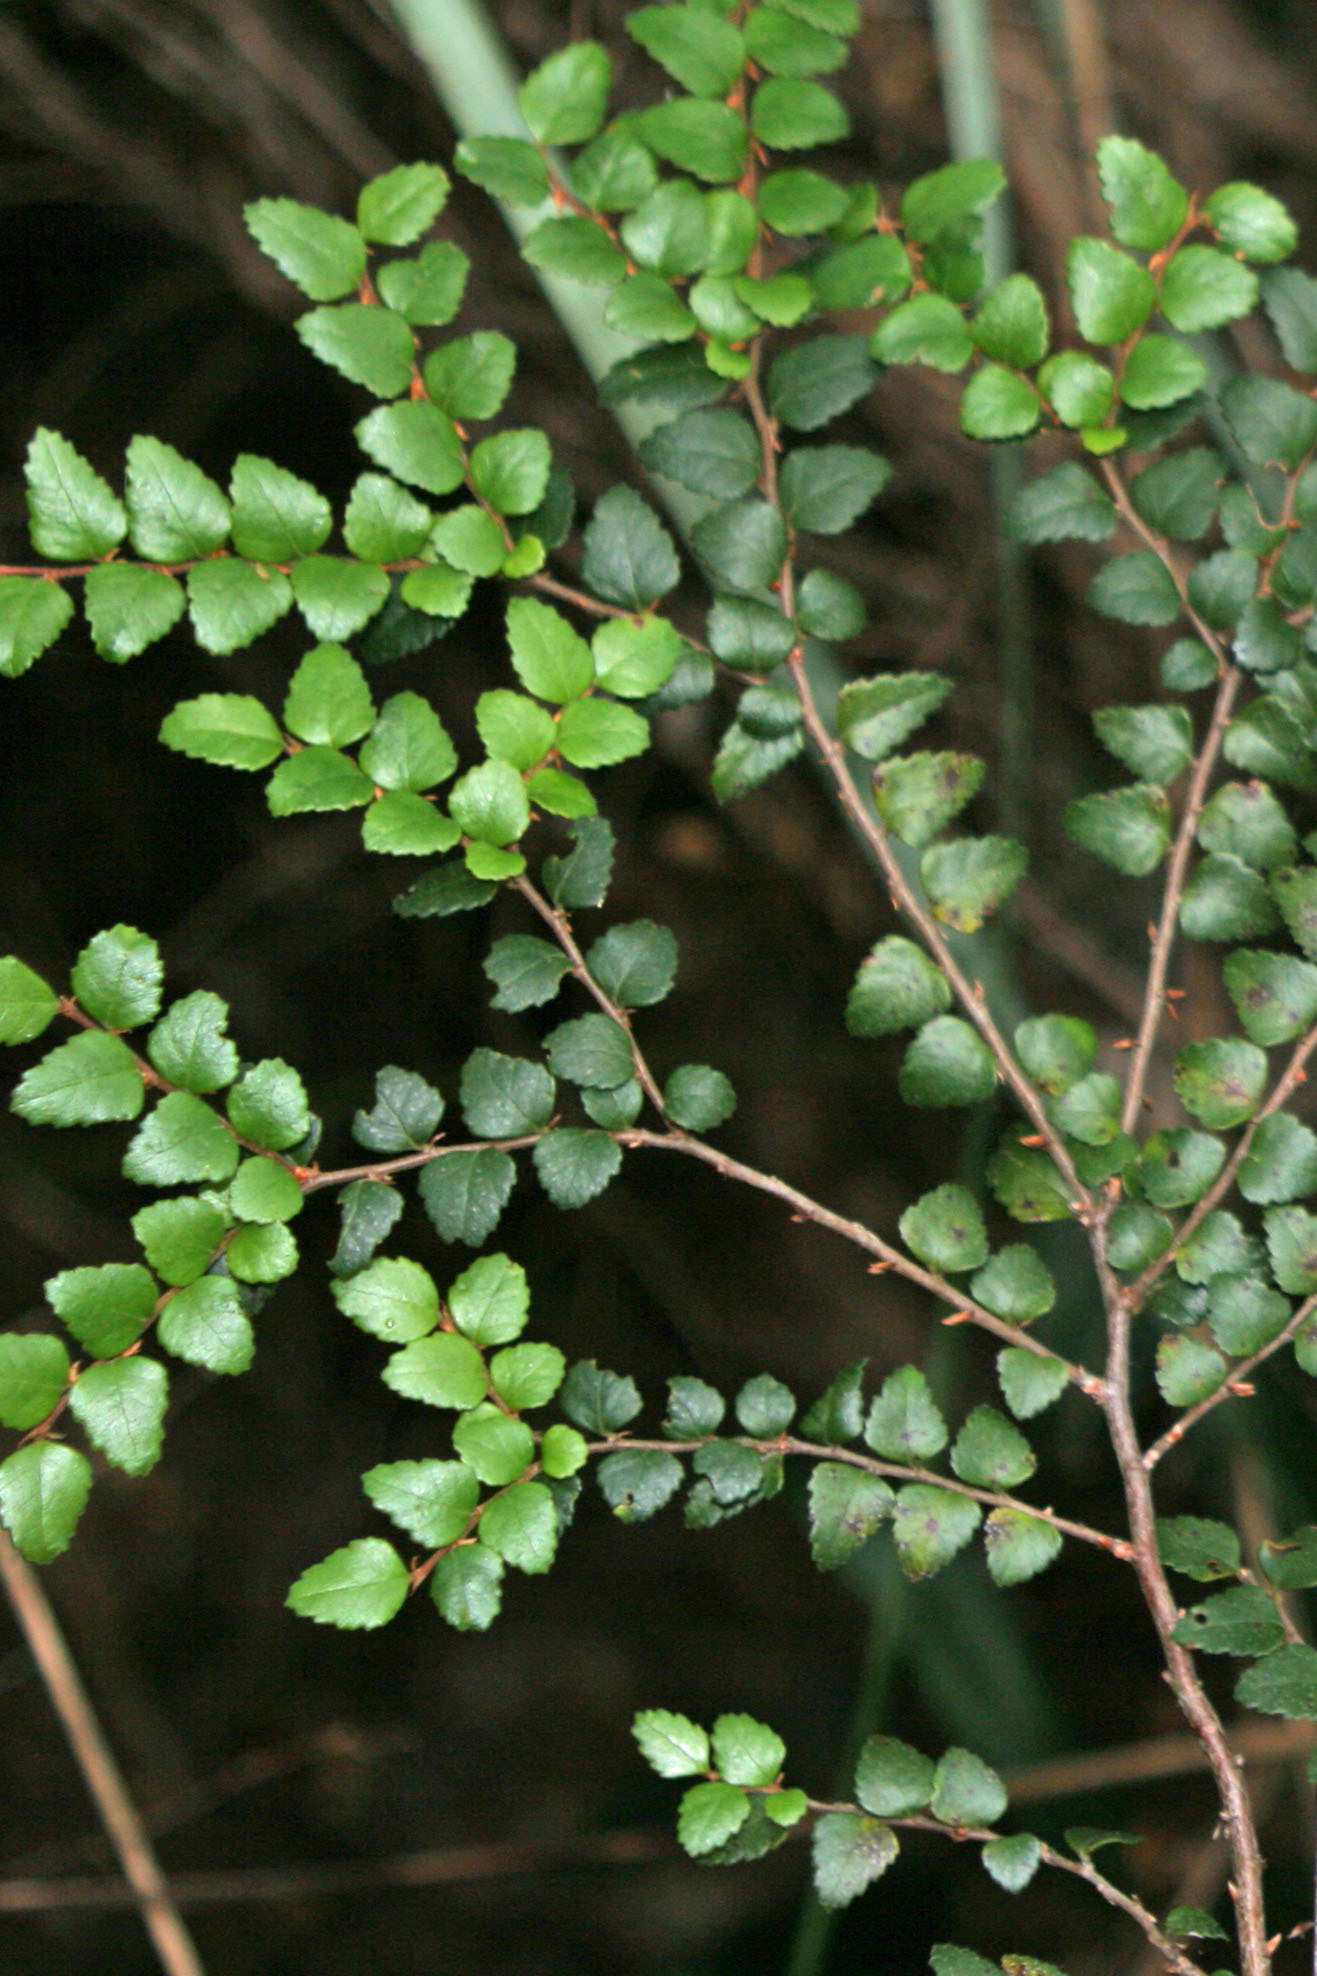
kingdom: Plantae
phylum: Tracheophyta
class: Magnoliopsida
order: Fagales
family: Nothofagaceae
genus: Nothofagus
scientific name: Nothofagus cunninghamii
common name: Myrtle beech
